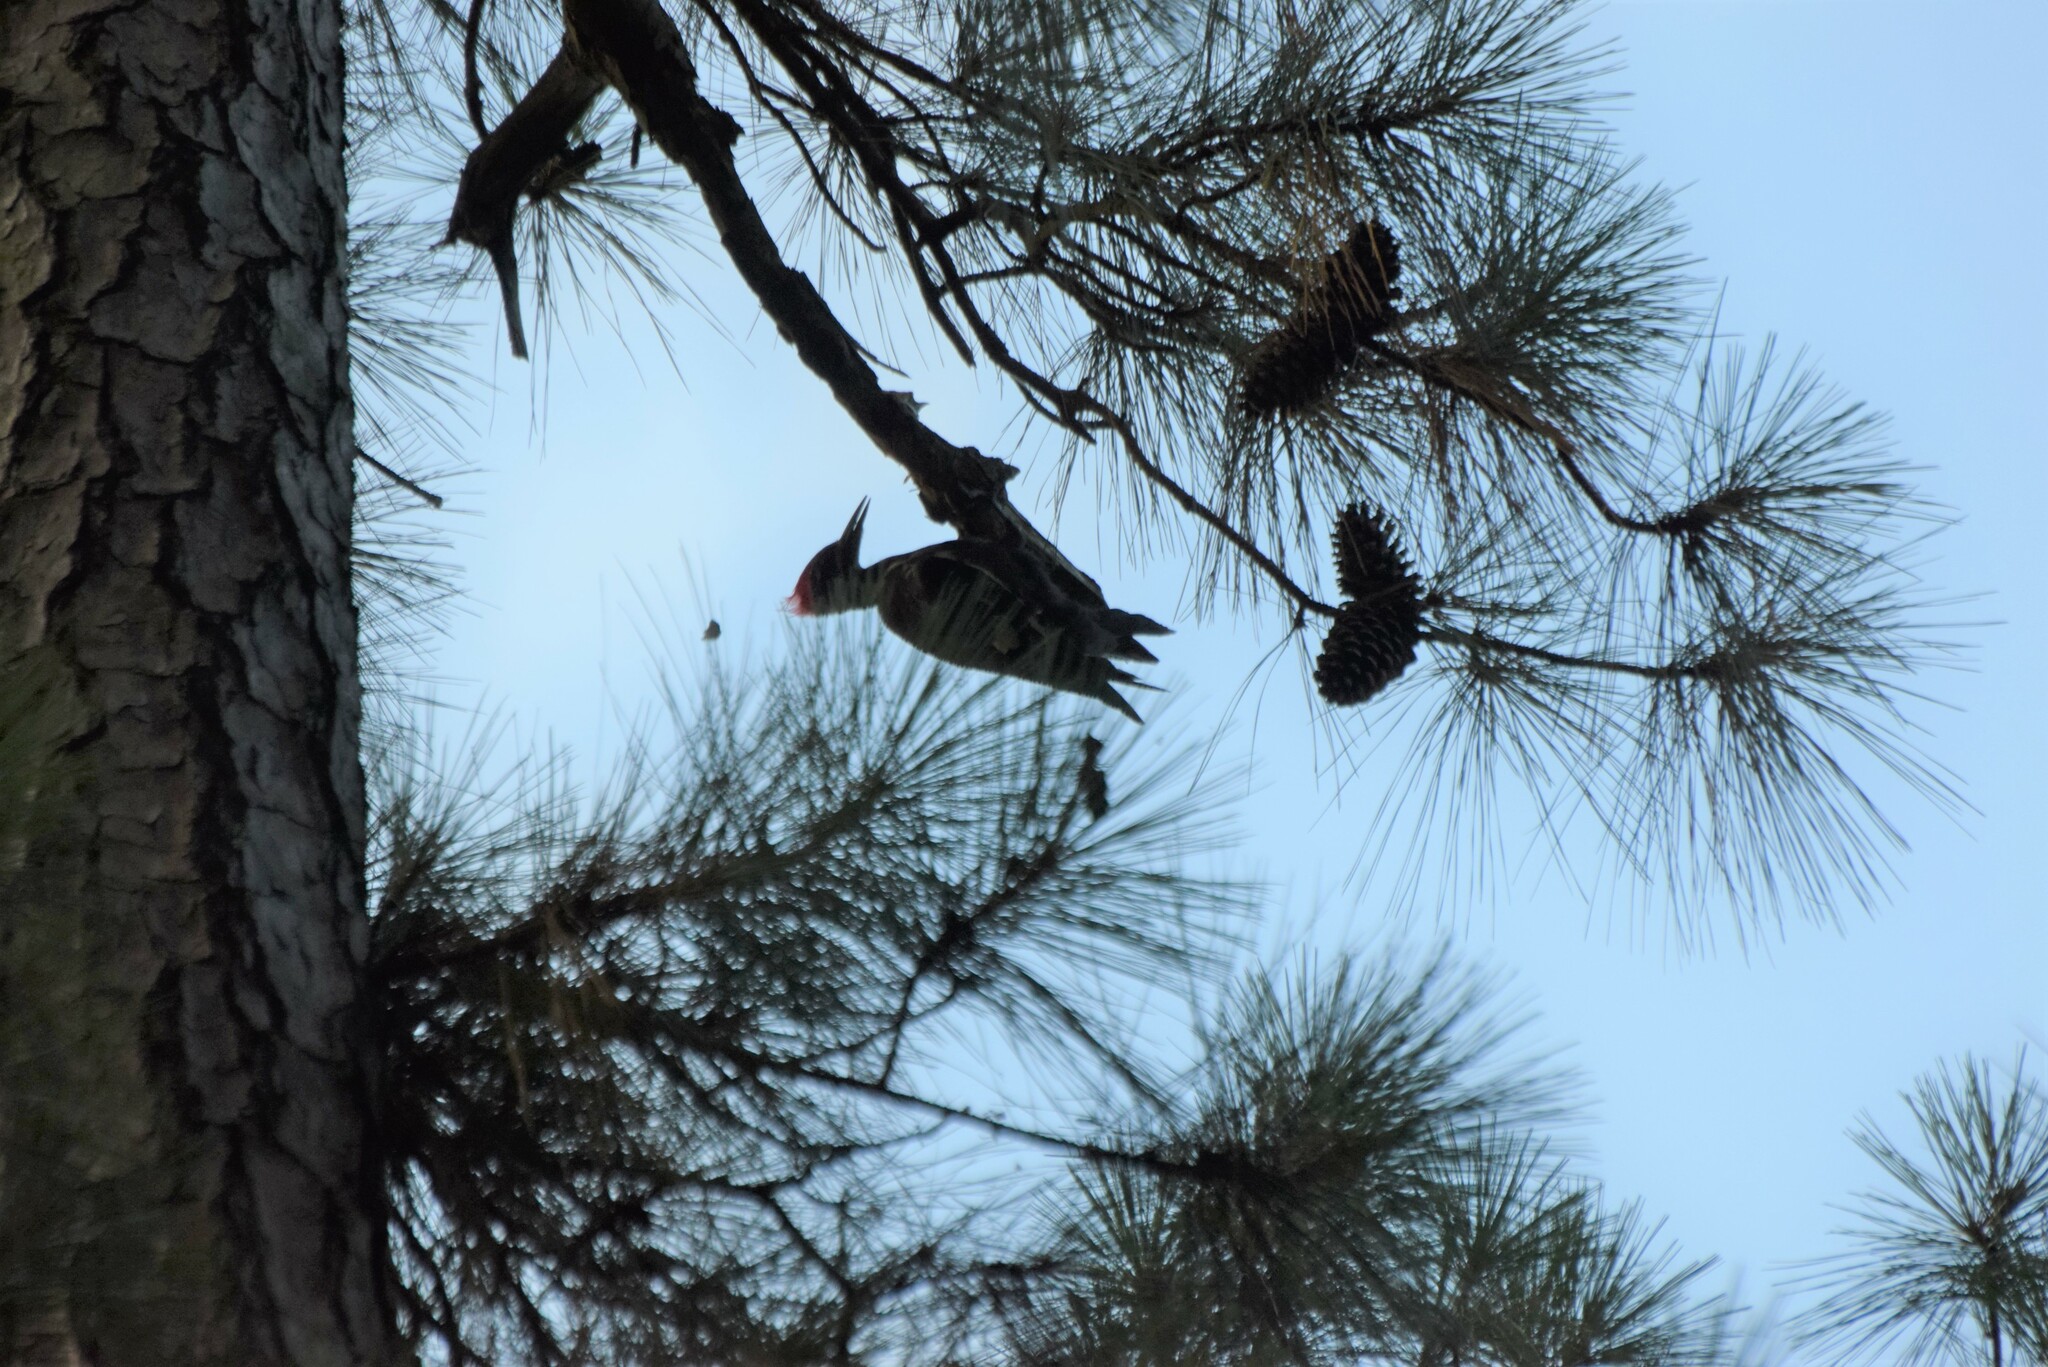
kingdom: Animalia
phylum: Chordata
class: Aves
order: Piciformes
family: Picidae
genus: Dryocopus
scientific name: Dryocopus pileatus
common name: Pileated woodpecker
